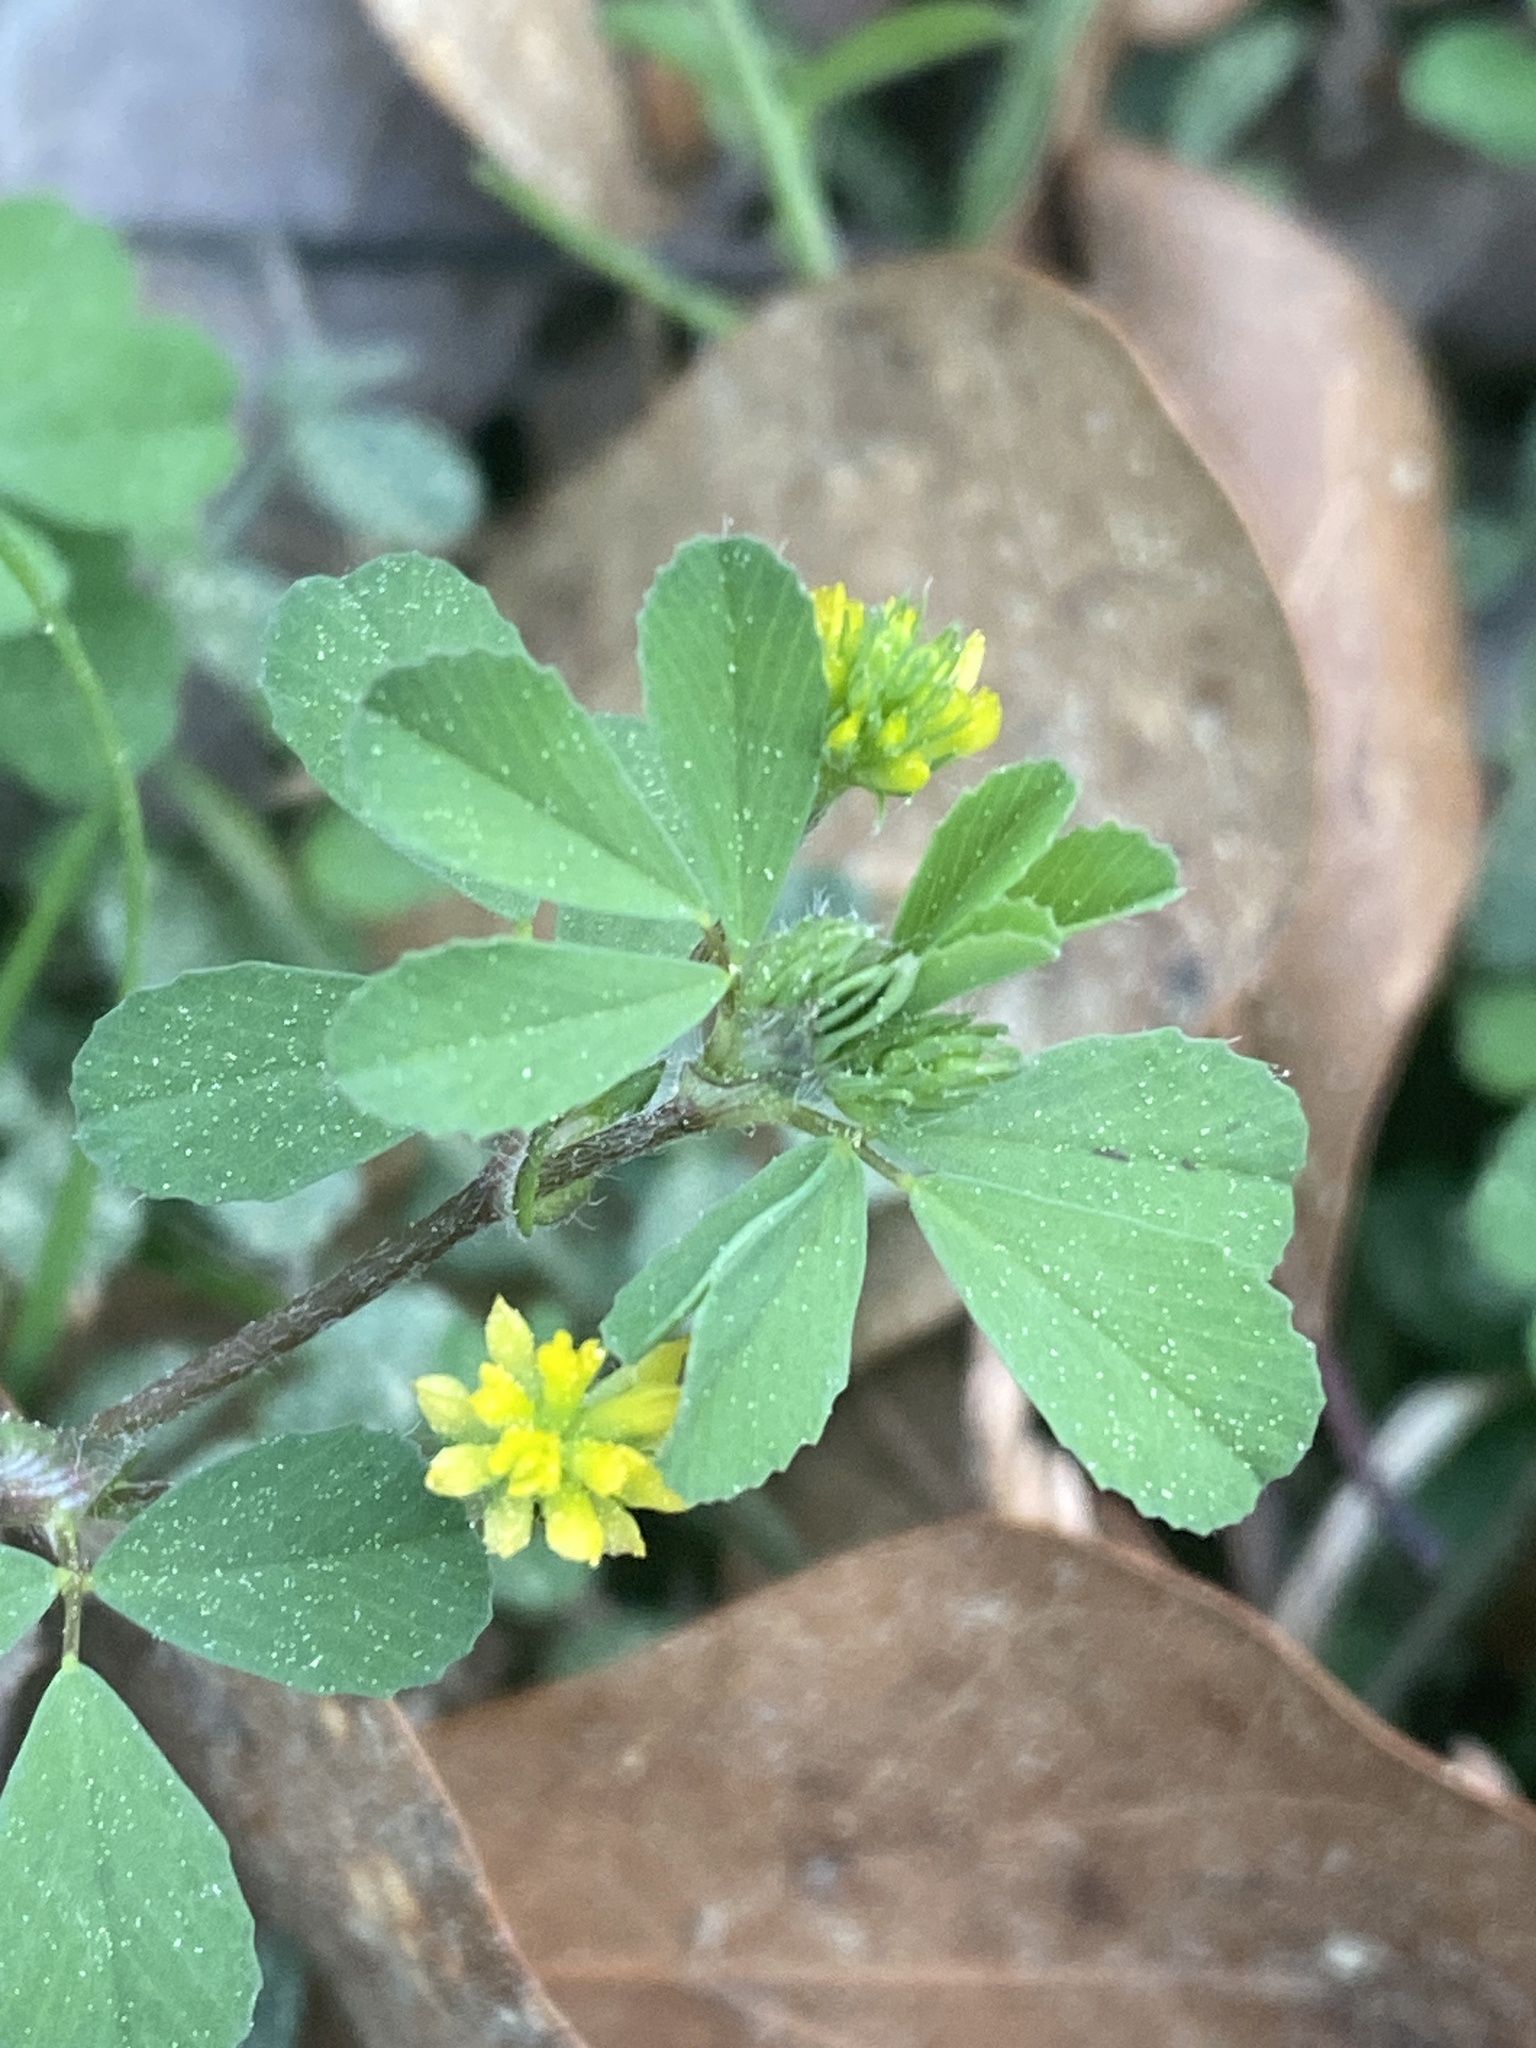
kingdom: Plantae
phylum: Tracheophyta
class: Magnoliopsida
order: Fabales
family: Fabaceae
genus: Trifolium
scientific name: Trifolium dubium
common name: Suckling clover
